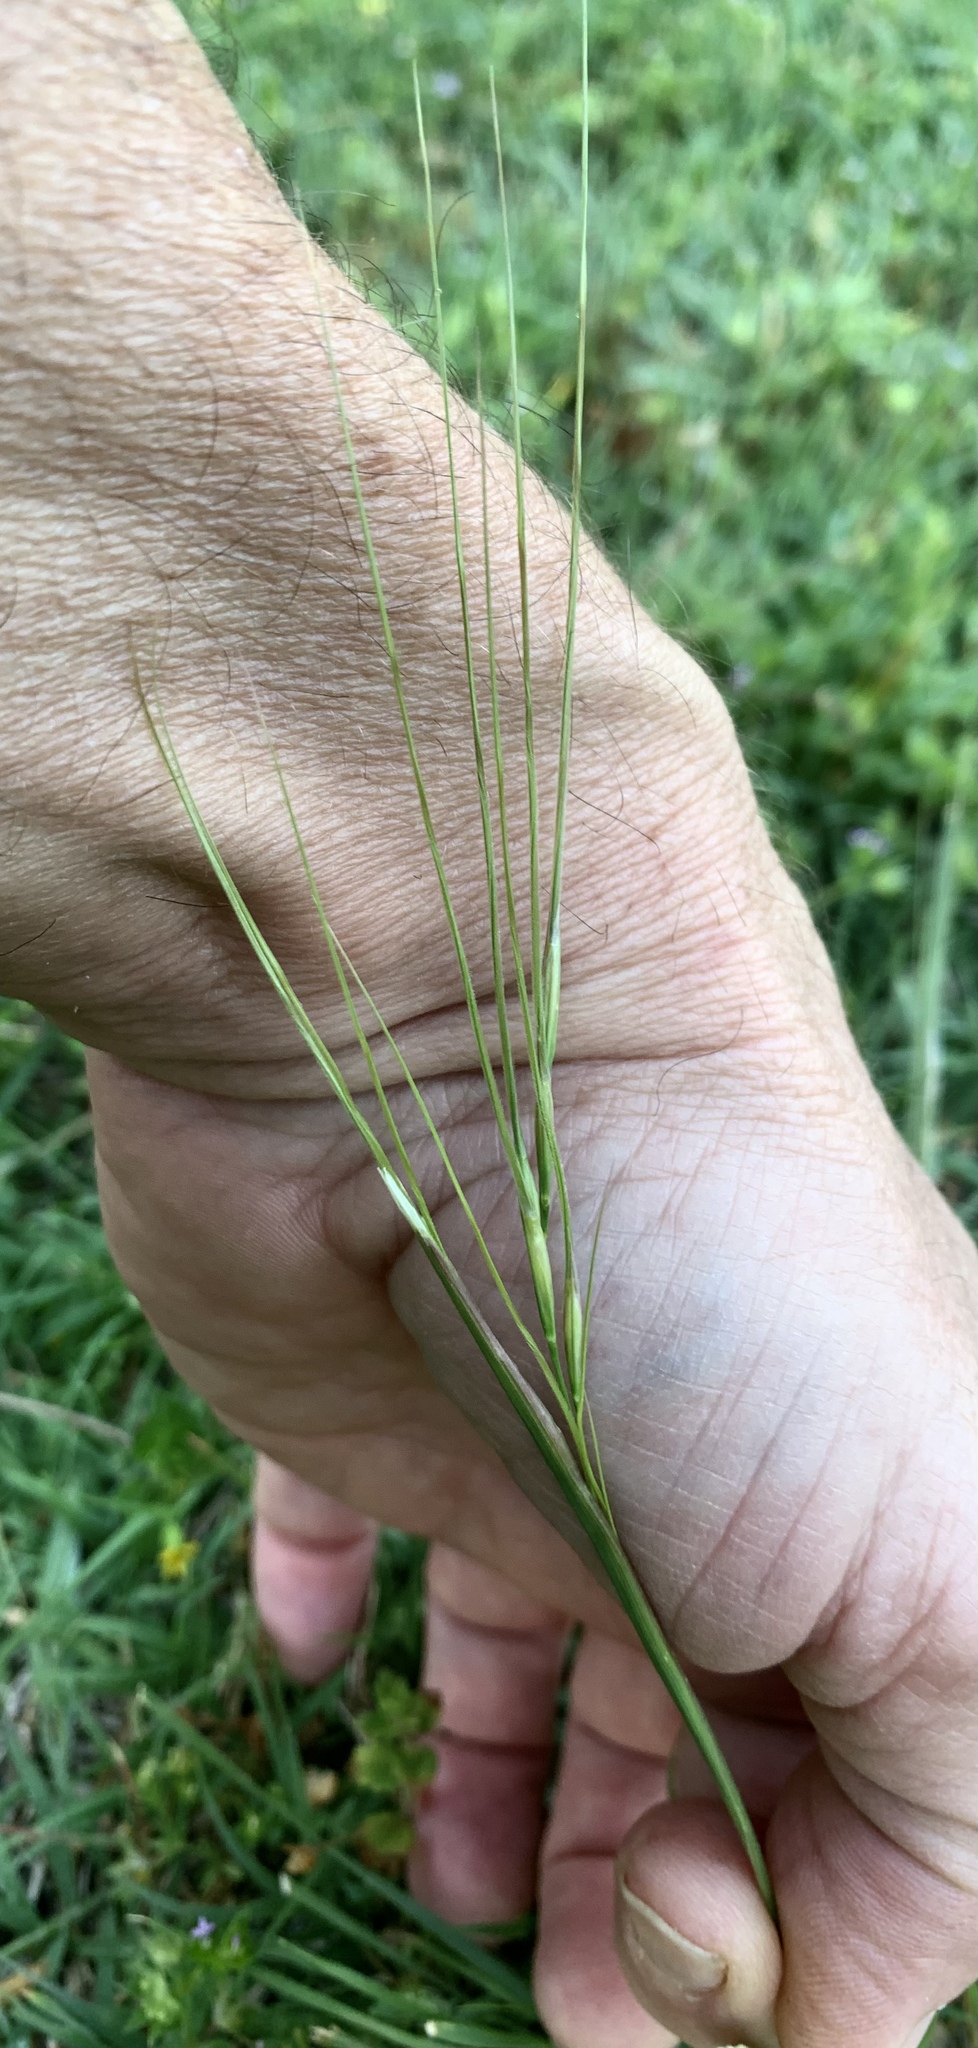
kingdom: Plantae
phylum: Tracheophyta
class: Liliopsida
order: Poales
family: Poaceae
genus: Nassella
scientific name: Nassella leucotricha
